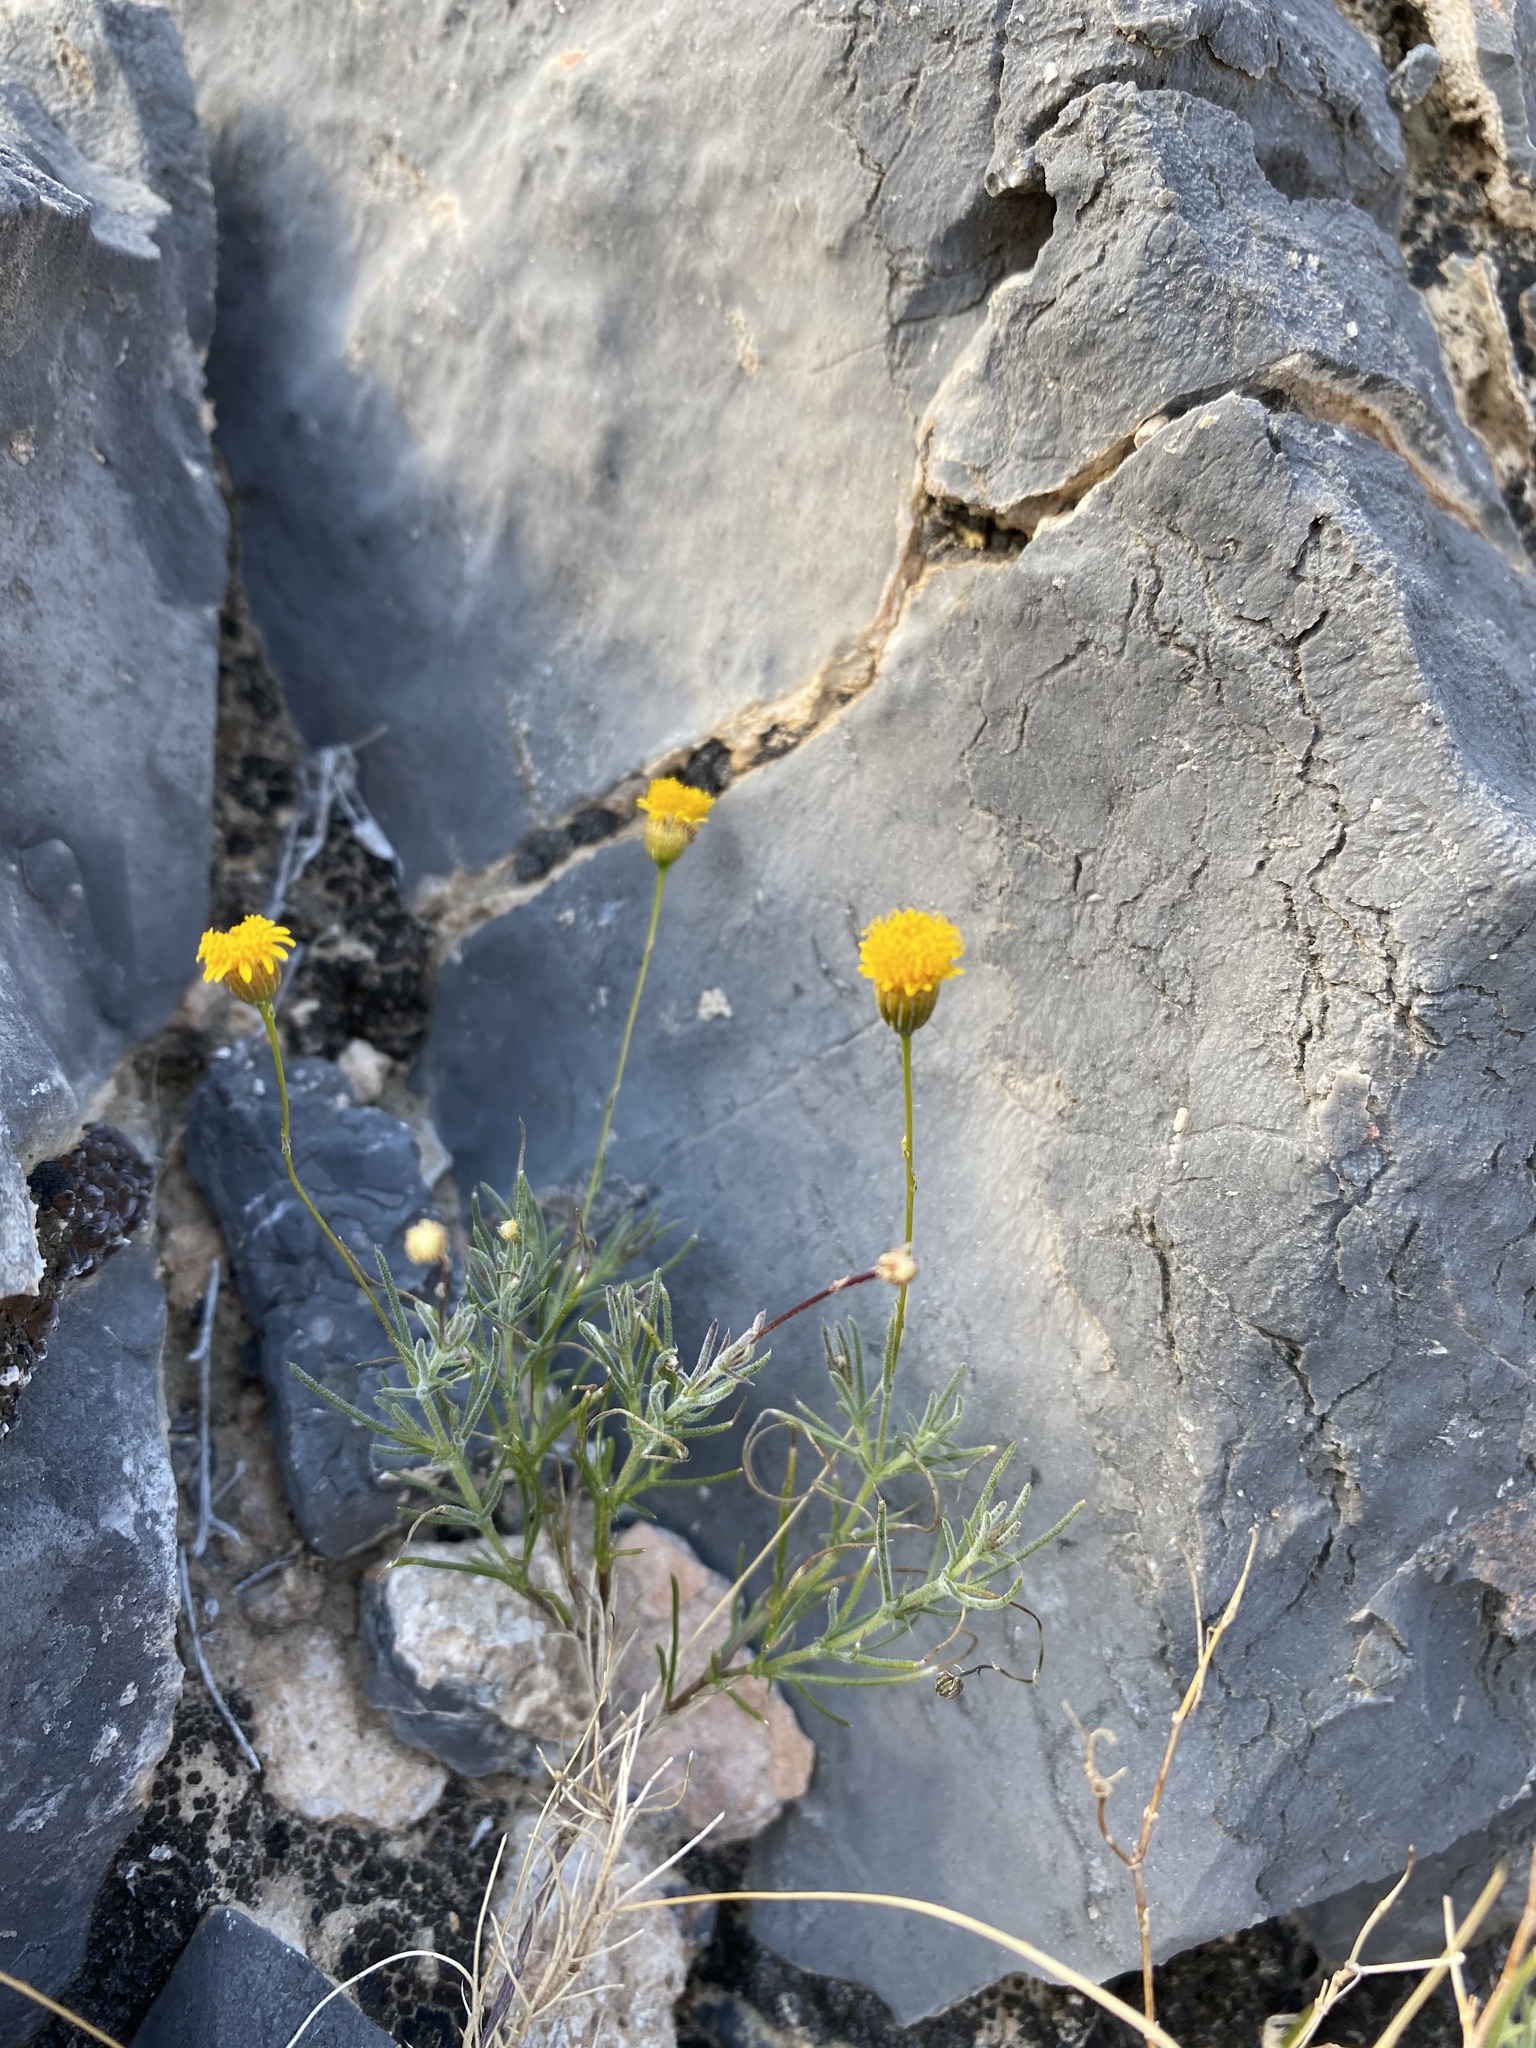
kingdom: Plantae
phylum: Tracheophyta
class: Magnoliopsida
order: Asterales
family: Asteraceae
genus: Thymophylla
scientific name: Thymophylla pentachaeta
